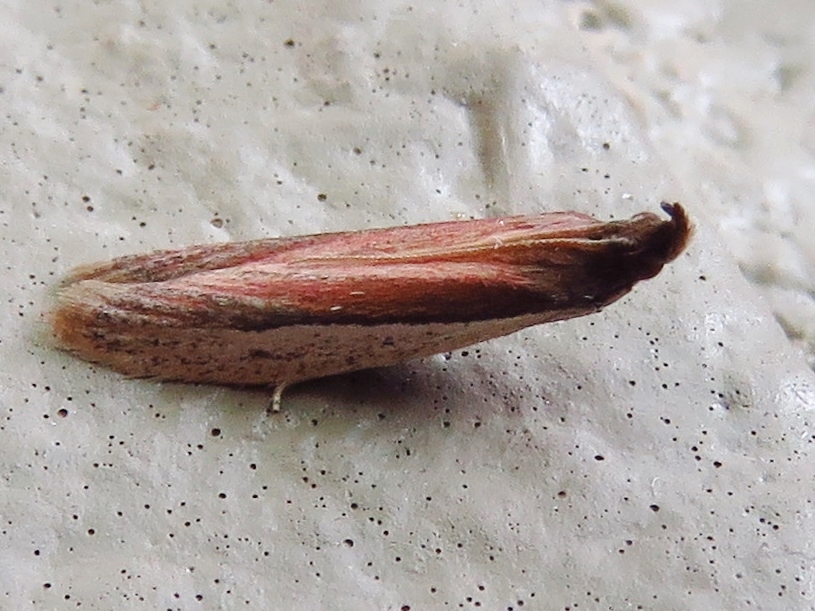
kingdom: Animalia
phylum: Arthropoda
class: Insecta
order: Lepidoptera
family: Pyralidae
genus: Tampa
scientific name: Tampa dimediatella
